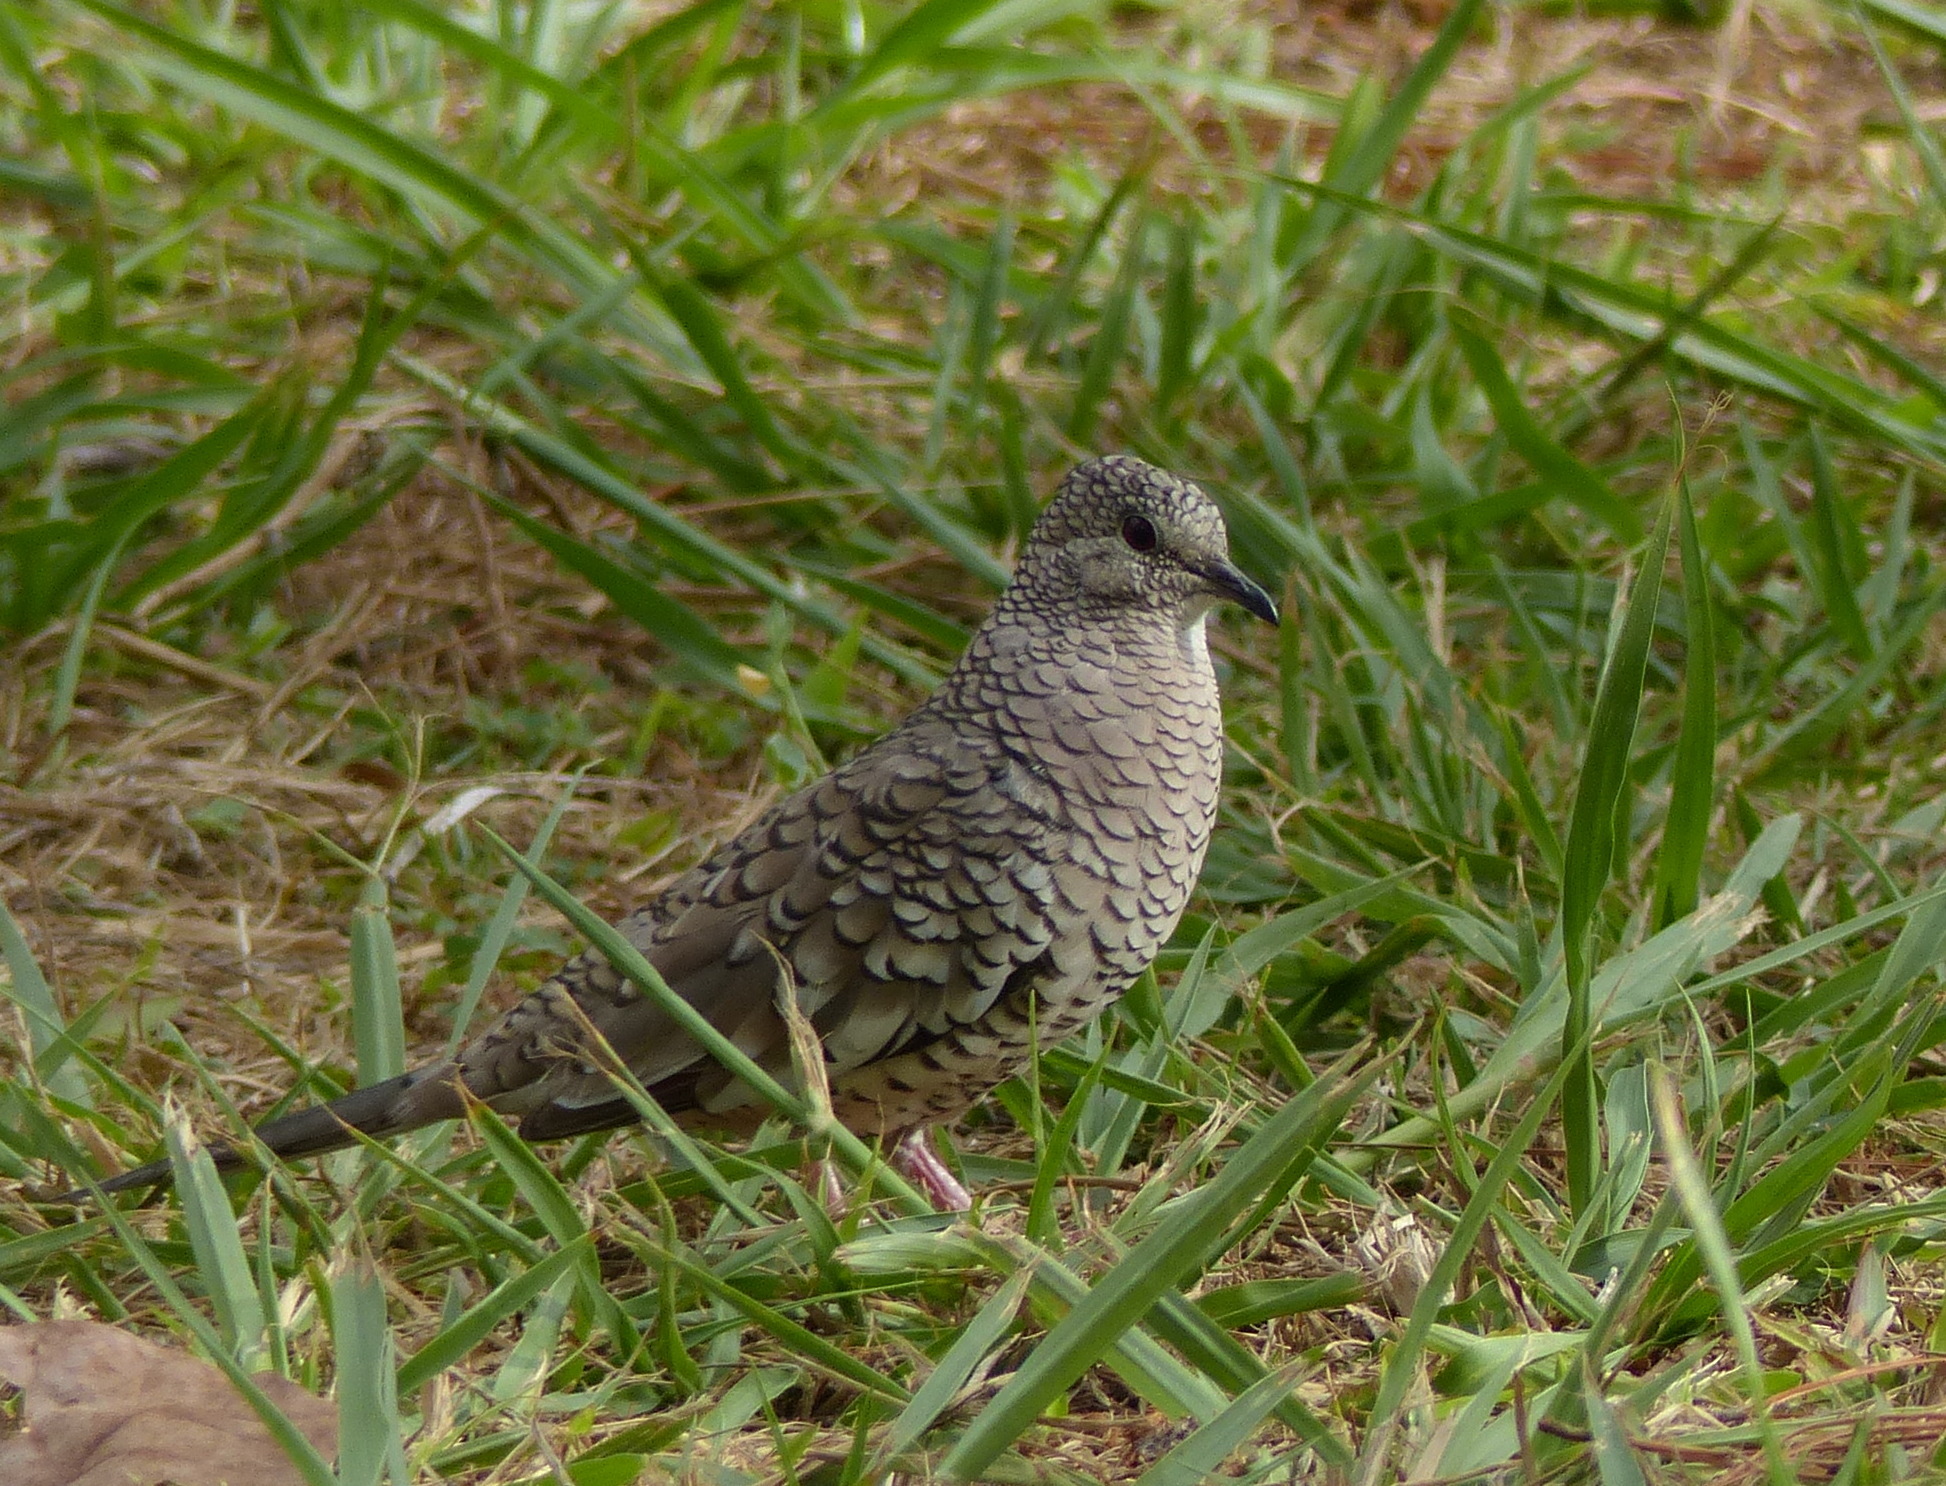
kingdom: Animalia
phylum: Chordata
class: Aves
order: Columbiformes
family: Columbidae
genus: Columbina
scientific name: Columbina squammata
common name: Scaled dove
